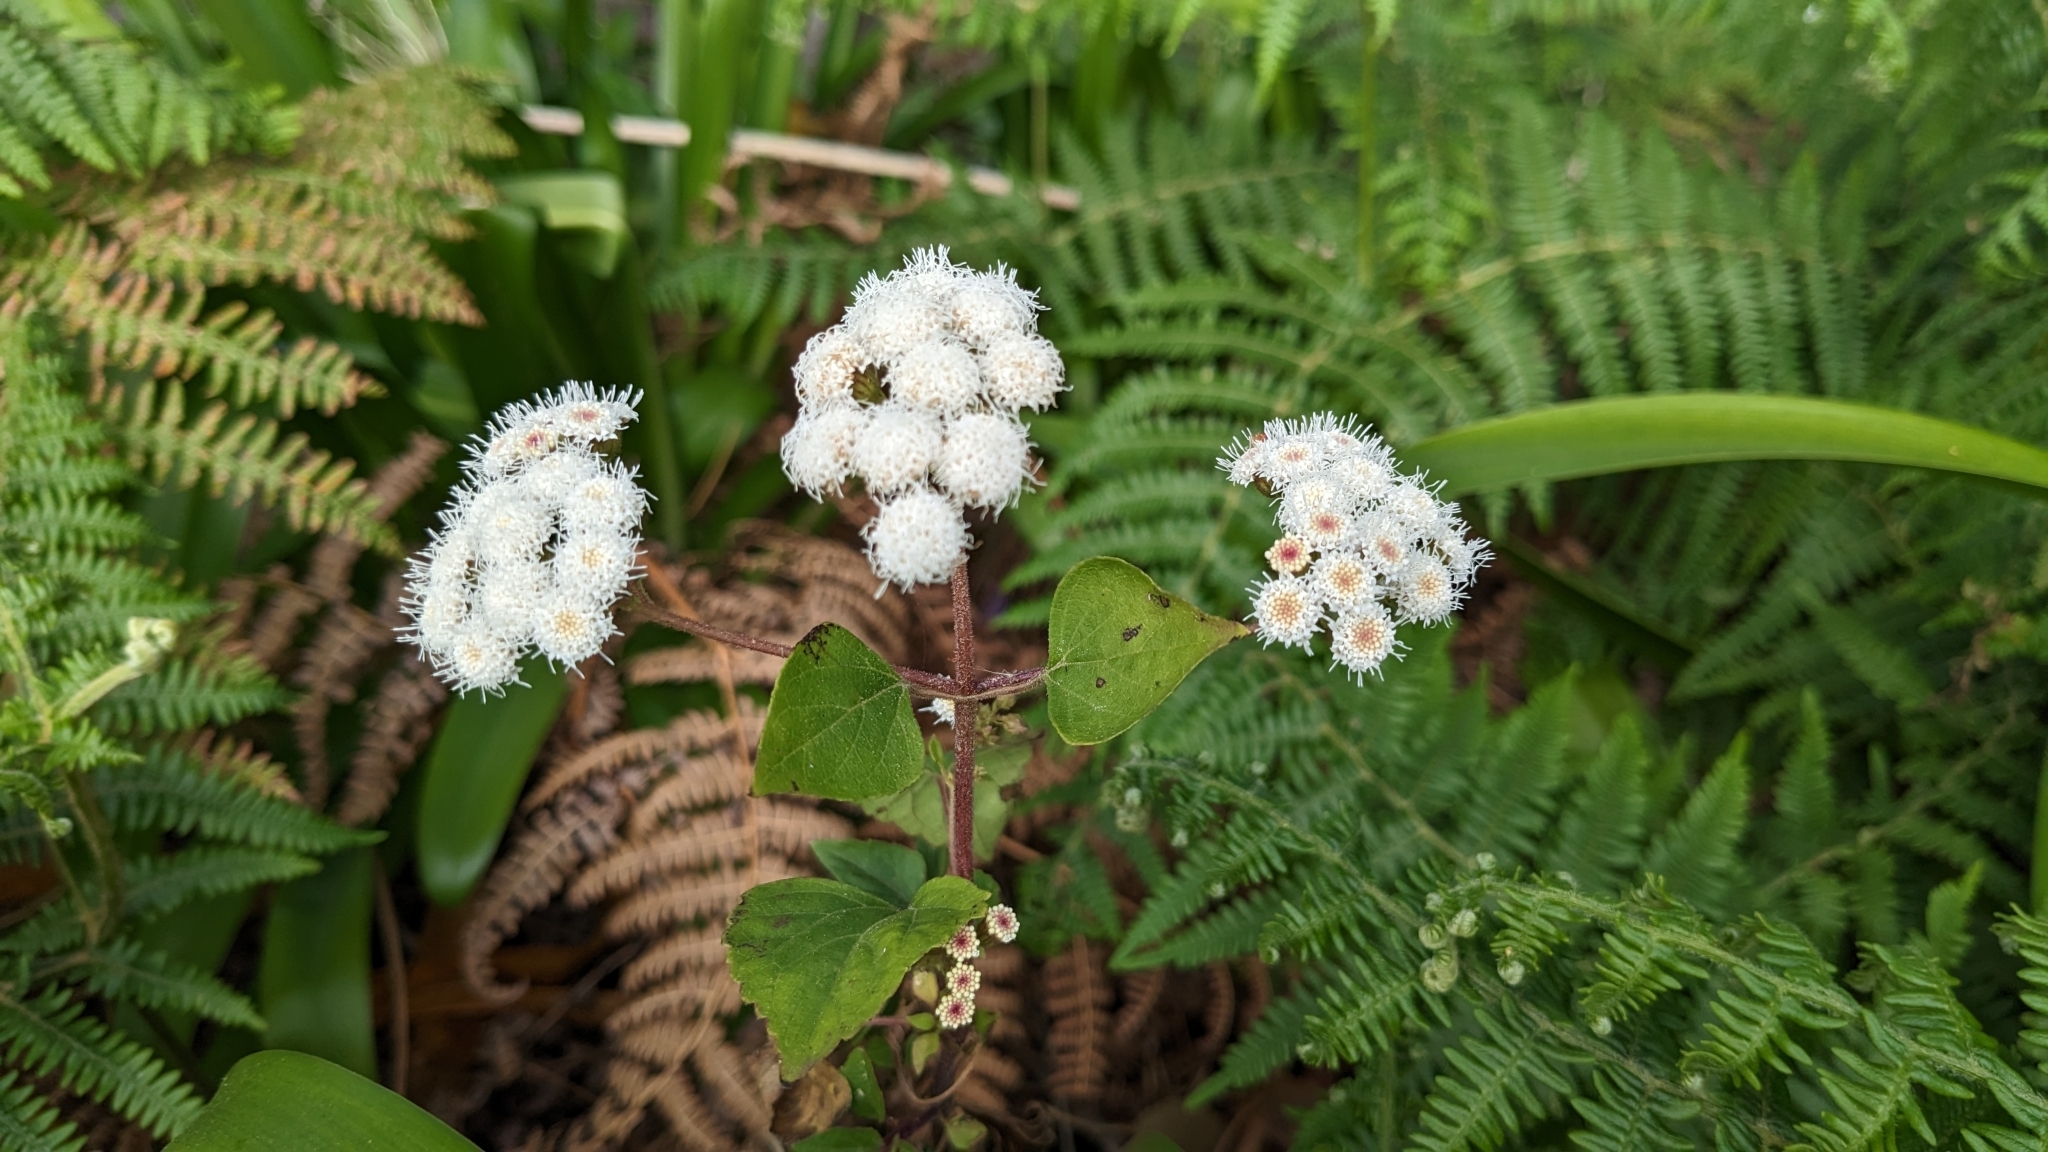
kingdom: Plantae
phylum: Tracheophyta
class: Magnoliopsida
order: Asterales
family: Asteraceae
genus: Ageratina
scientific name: Ageratina adenophora
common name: Sticky snakeroot
